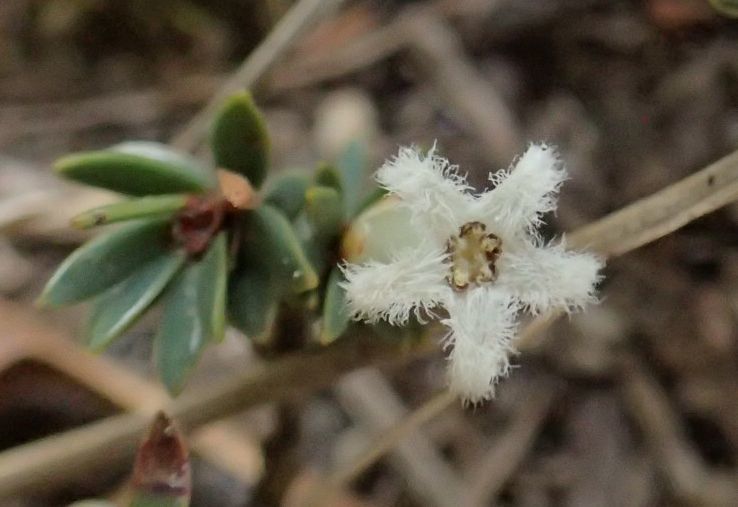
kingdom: Plantae
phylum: Tracheophyta
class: Magnoliopsida
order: Ericales
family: Ericaceae
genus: Pentachondra
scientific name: Pentachondra pumila
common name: Carpet-heath
